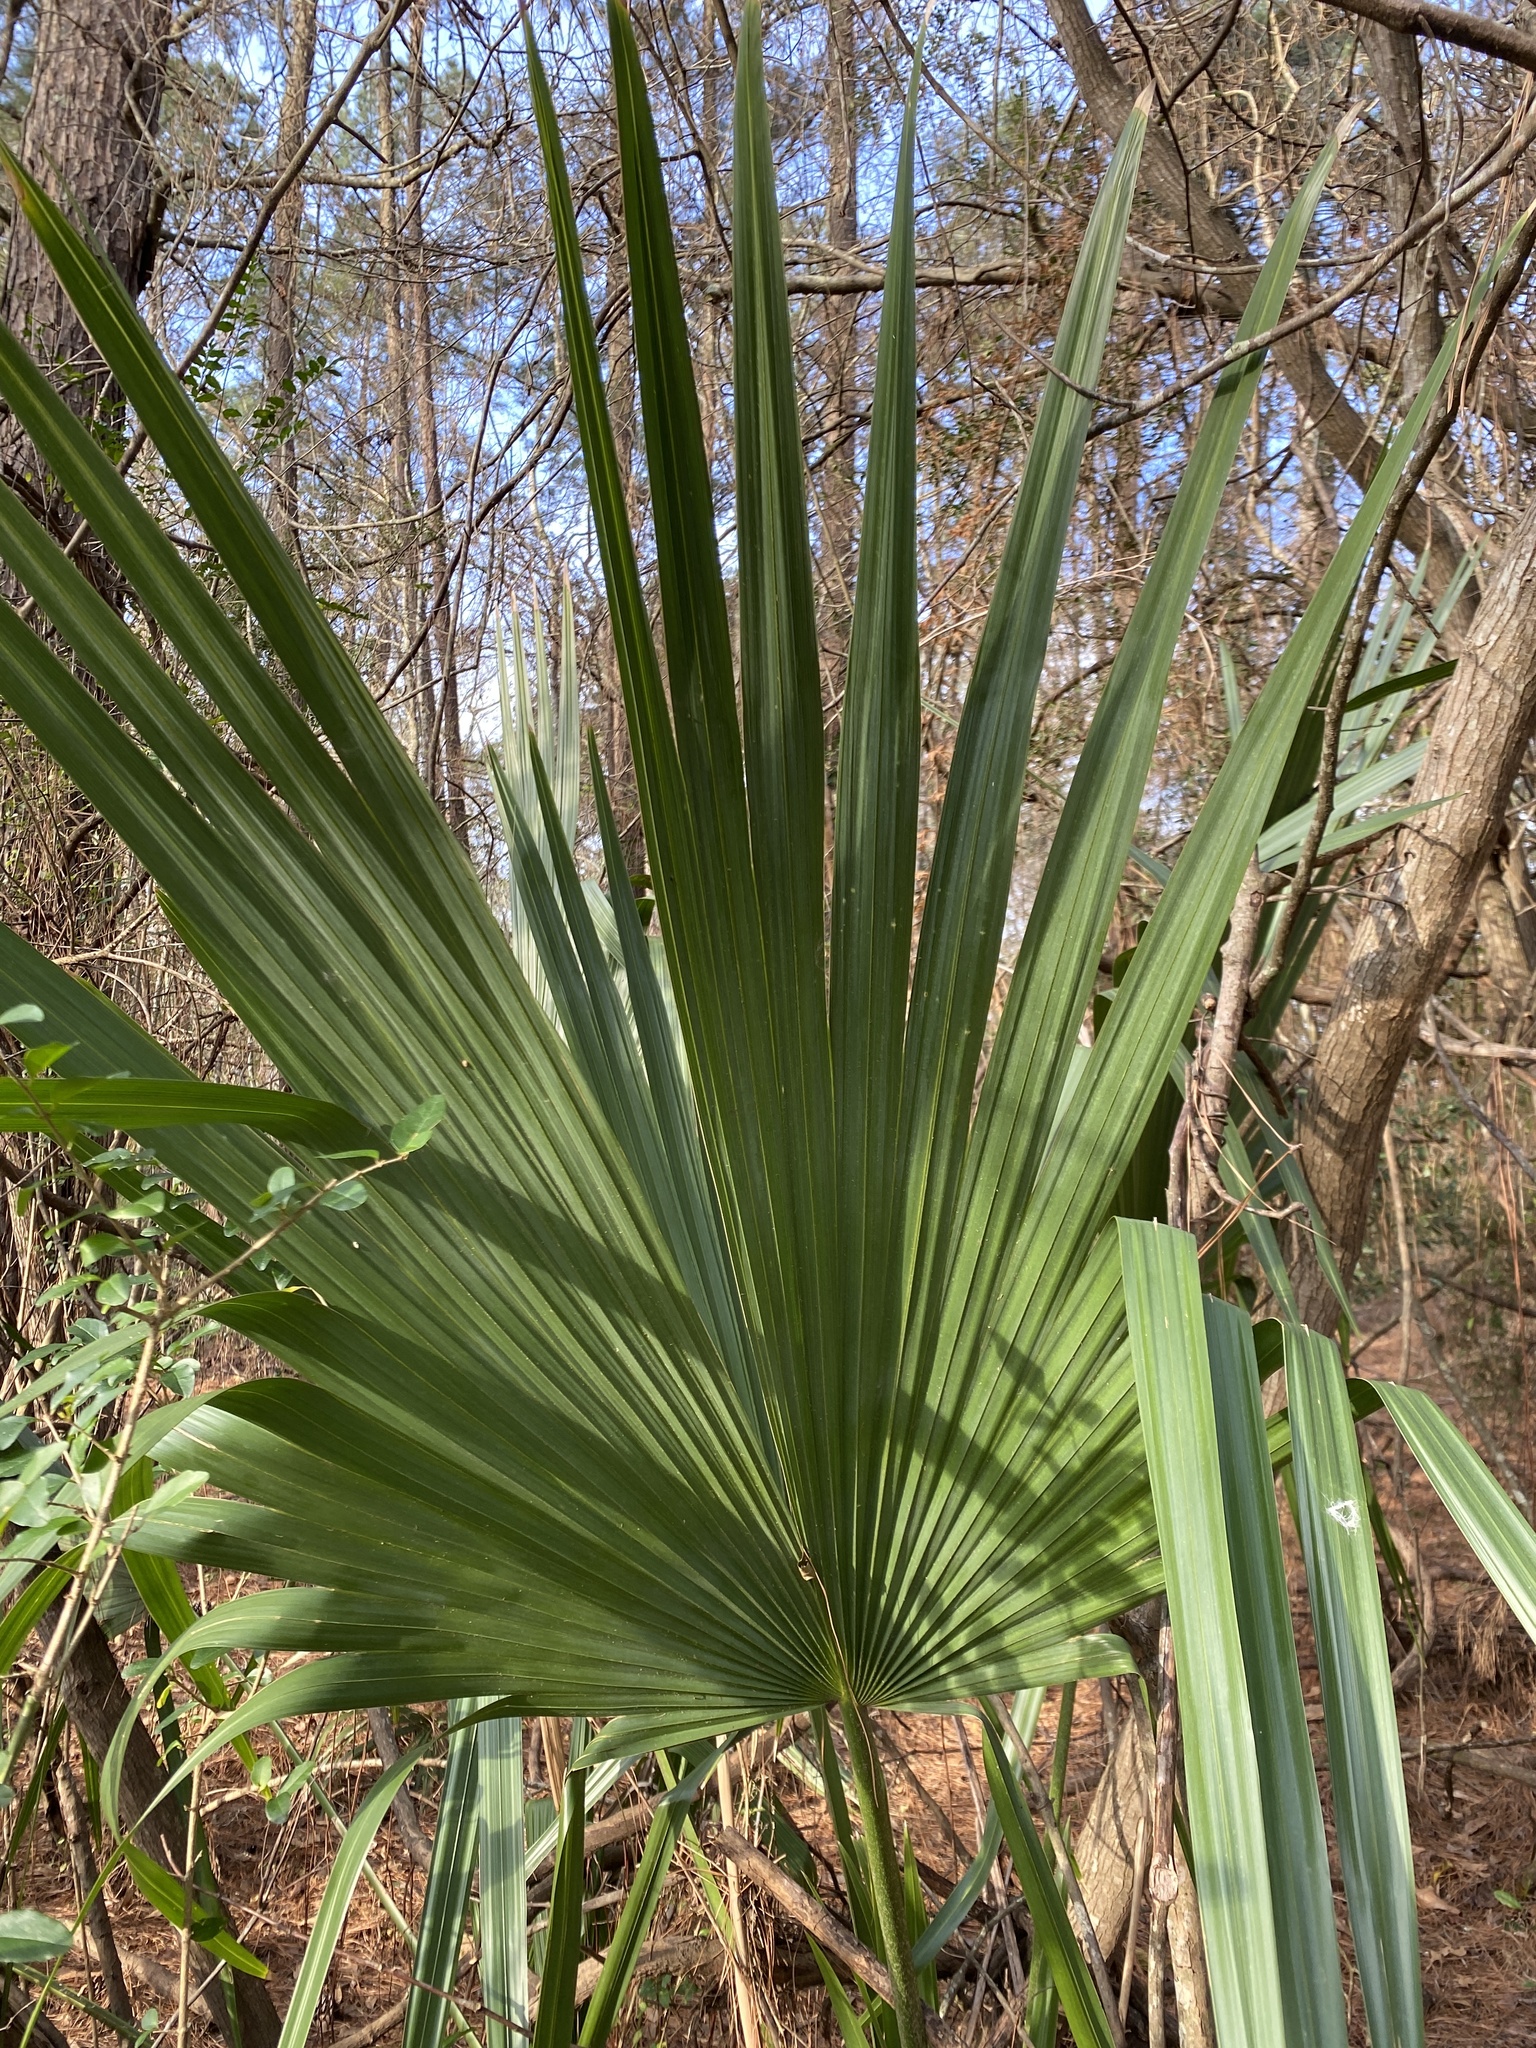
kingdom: Plantae
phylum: Tracheophyta
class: Liliopsida
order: Arecales
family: Arecaceae
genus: Sabal
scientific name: Sabal minor
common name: Dwarf palmetto
